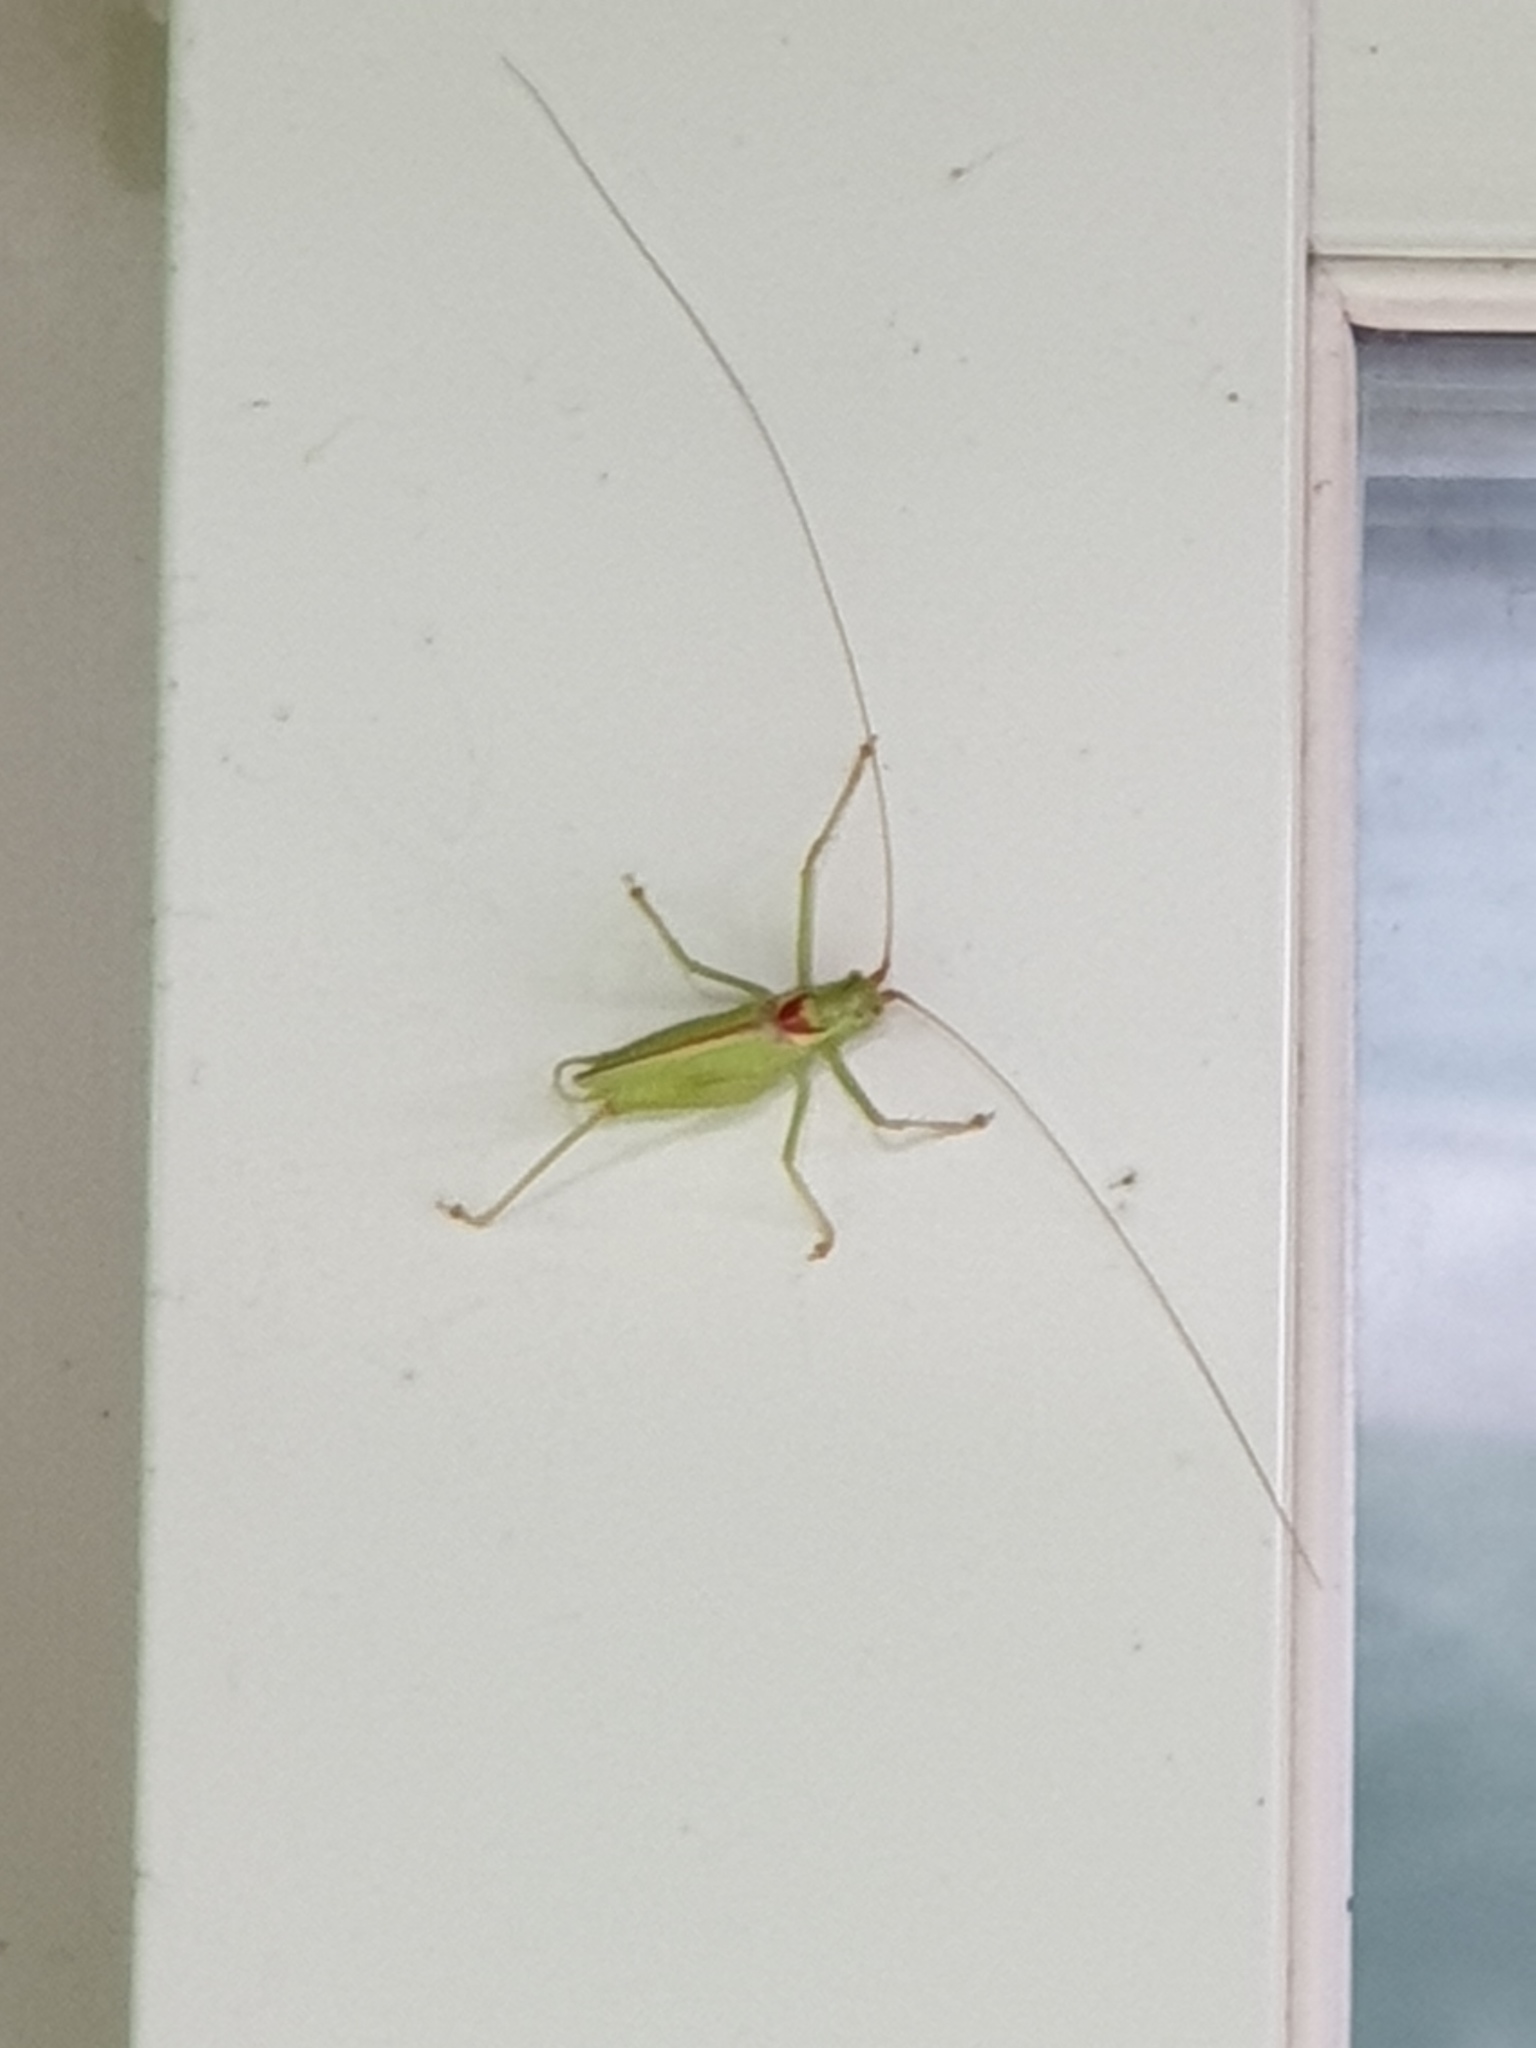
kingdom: Animalia
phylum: Arthropoda
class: Insecta
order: Orthoptera
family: Tettigoniidae
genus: Nipponomeconema
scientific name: Nipponomeconema musashiense
